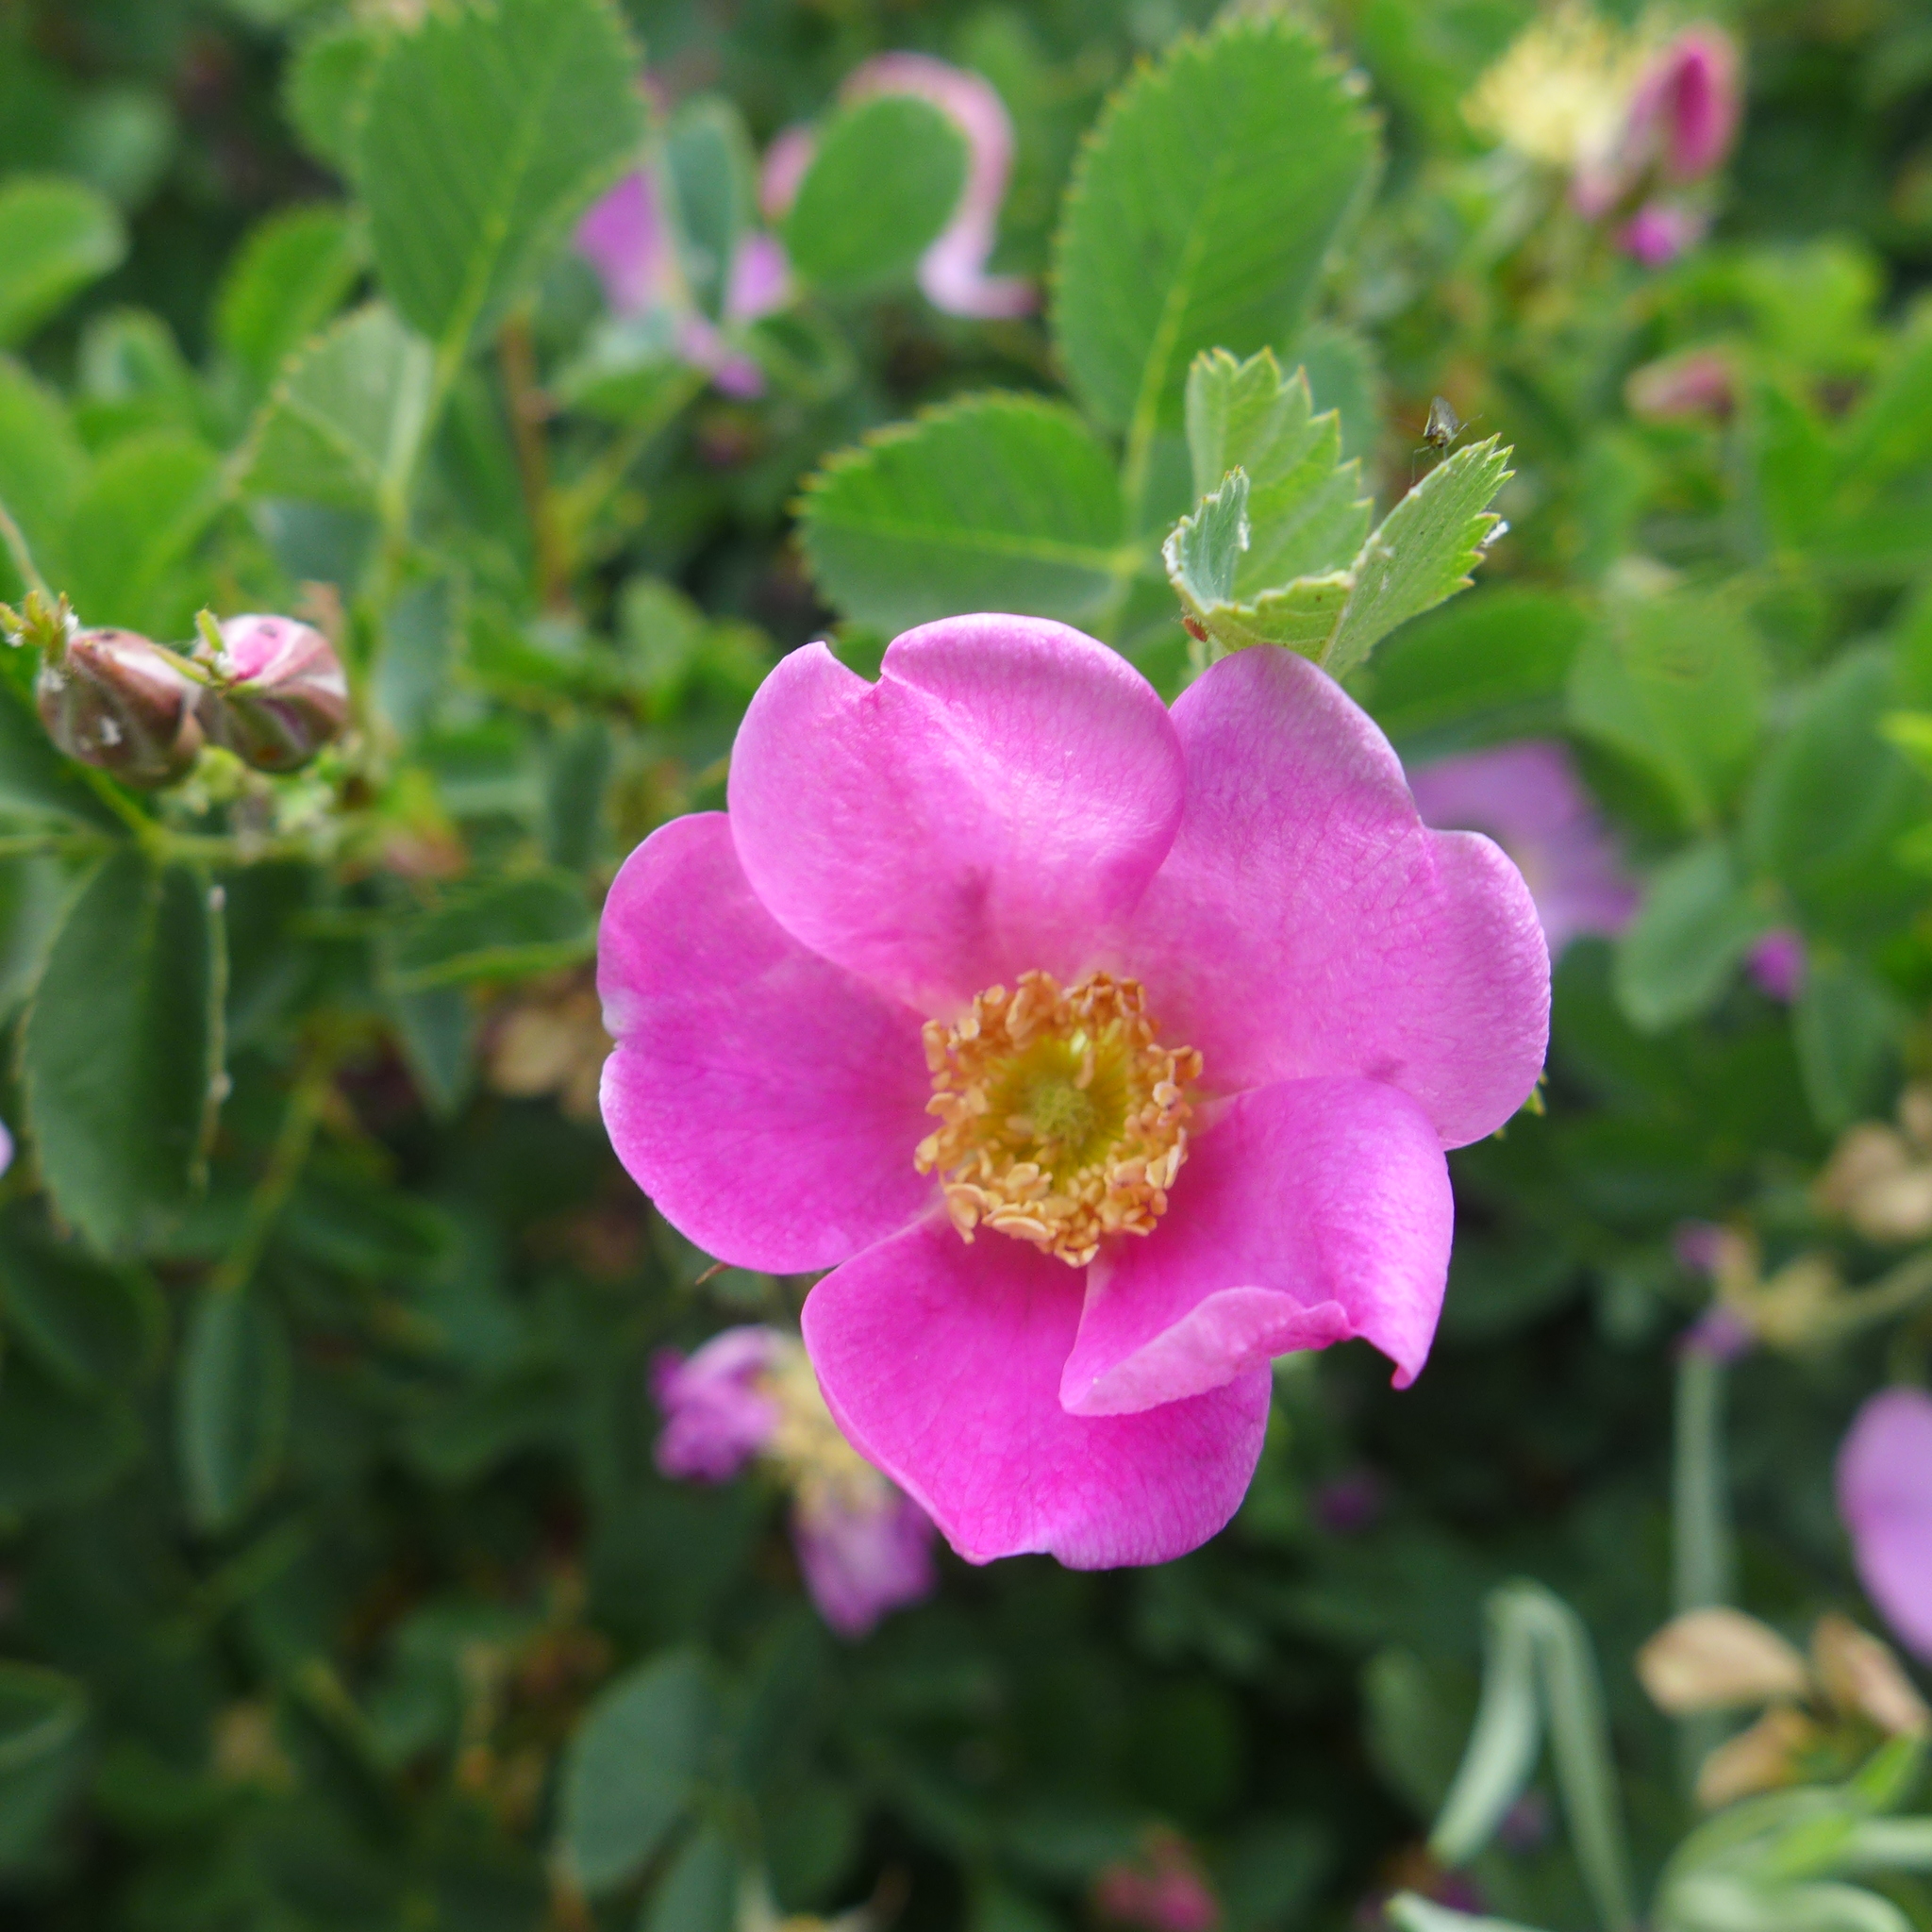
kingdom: Plantae
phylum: Tracheophyta
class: Magnoliopsida
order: Rosales
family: Rosaceae
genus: Rosa
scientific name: Rosa woodsii
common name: Woods's rose
